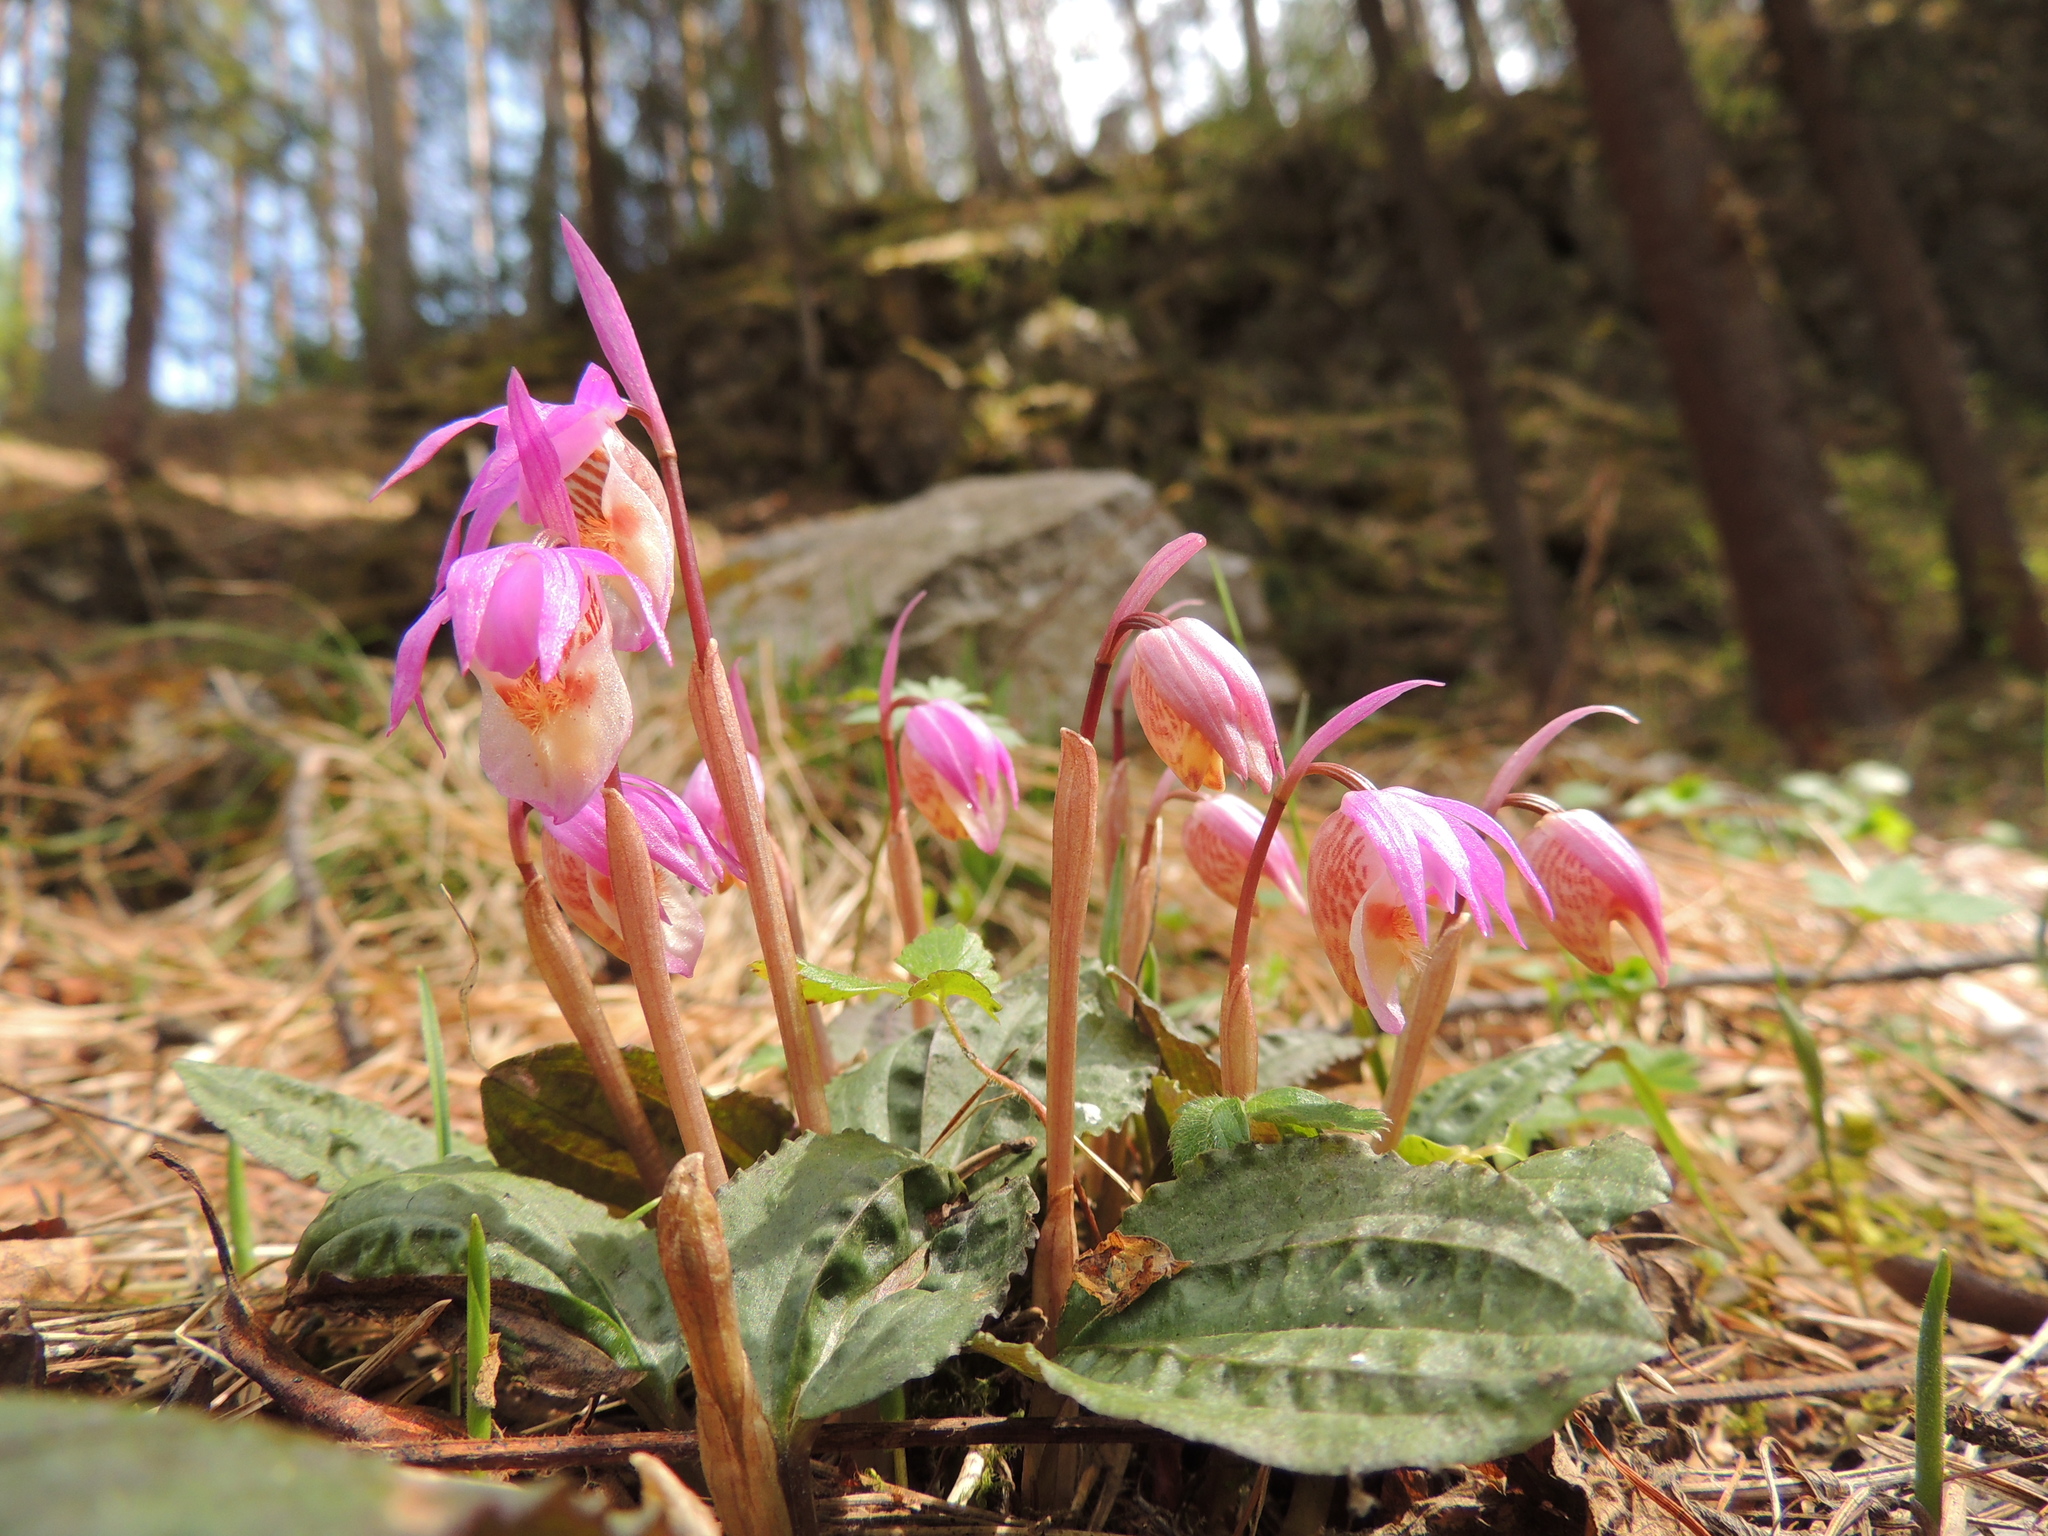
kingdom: Plantae
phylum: Tracheophyta
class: Liliopsida
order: Asparagales
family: Orchidaceae
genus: Calypso
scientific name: Calypso bulbosa
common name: Calypso
